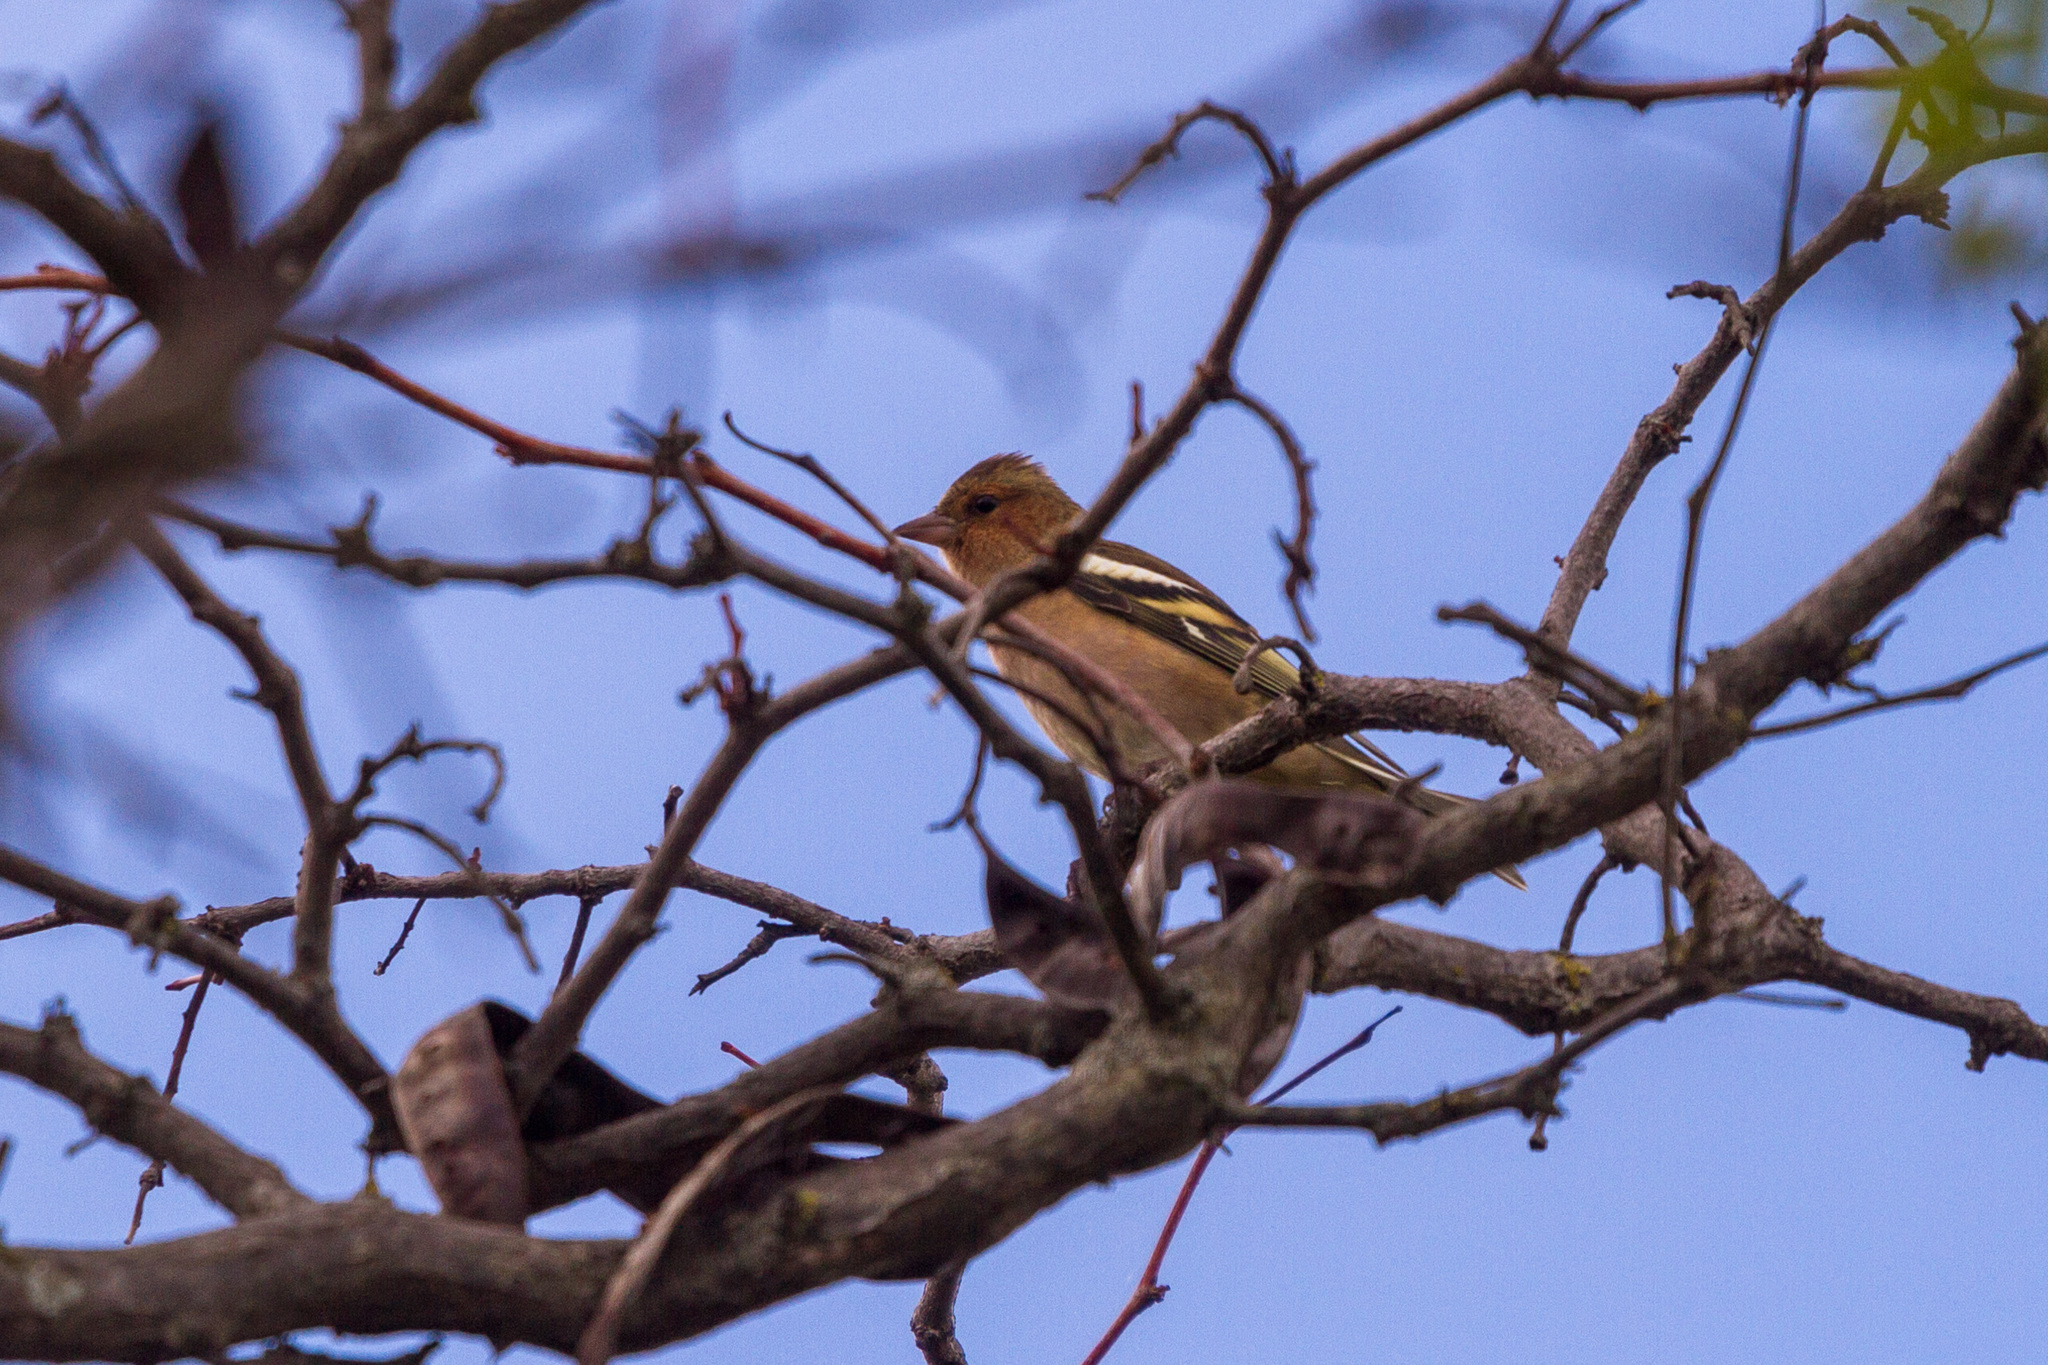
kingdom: Animalia
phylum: Chordata
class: Aves
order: Passeriformes
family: Fringillidae
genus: Fringilla
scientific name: Fringilla coelebs
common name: Common chaffinch
